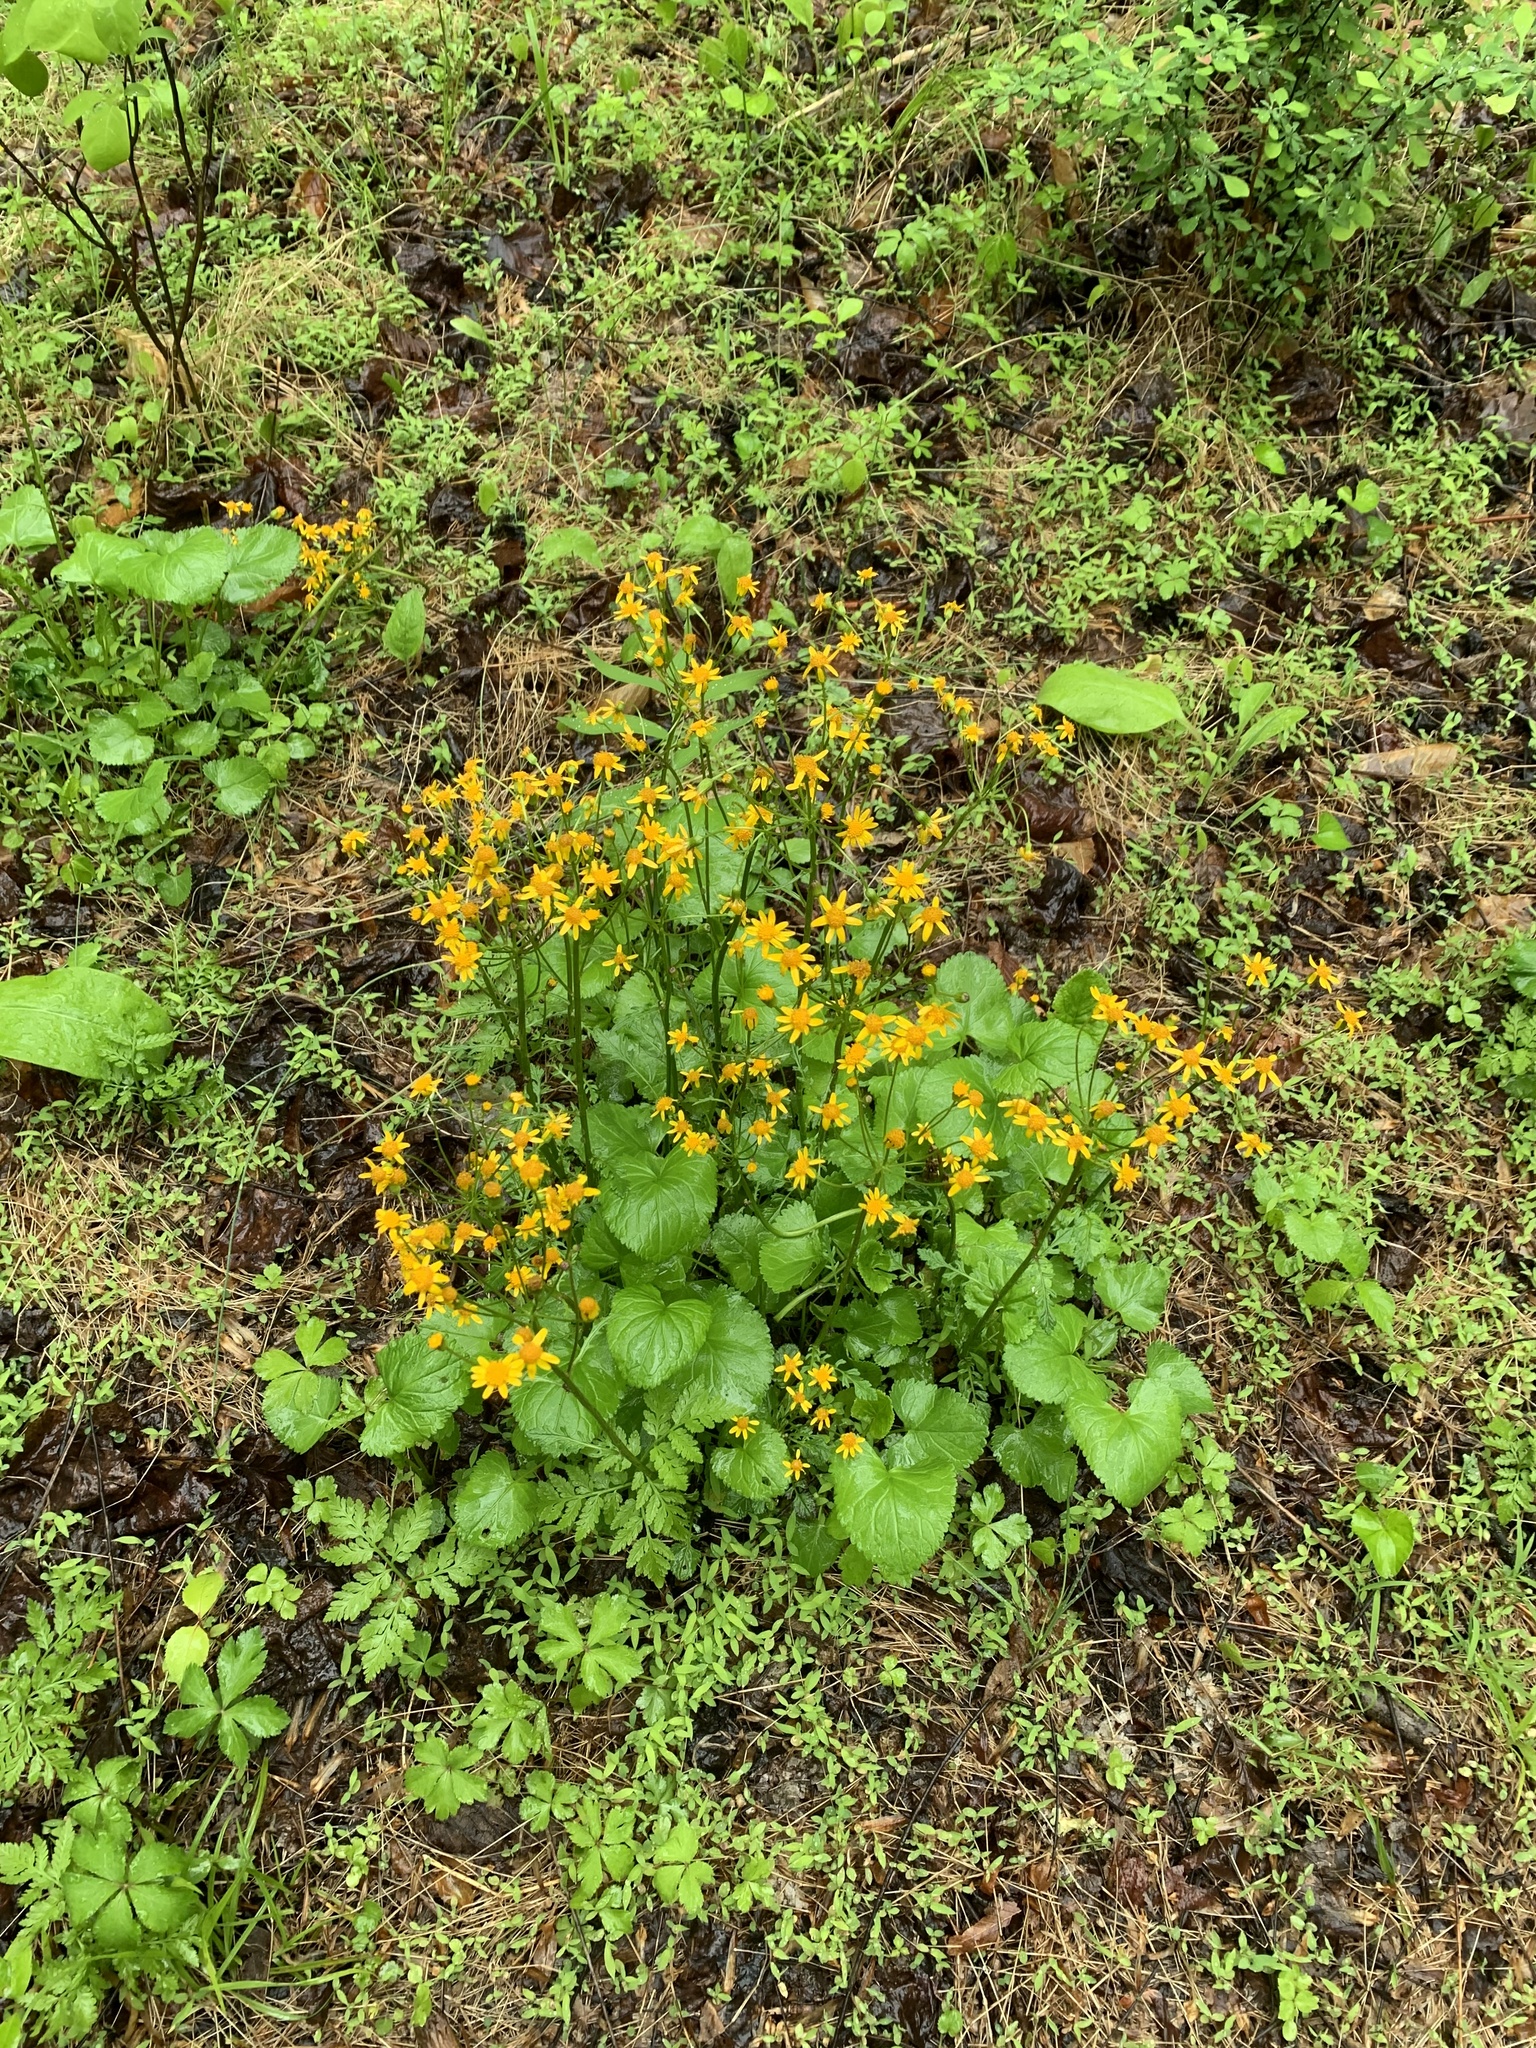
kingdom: Plantae
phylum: Tracheophyta
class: Magnoliopsida
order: Asterales
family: Asteraceae
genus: Packera
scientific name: Packera aurea
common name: Golden groundsel
